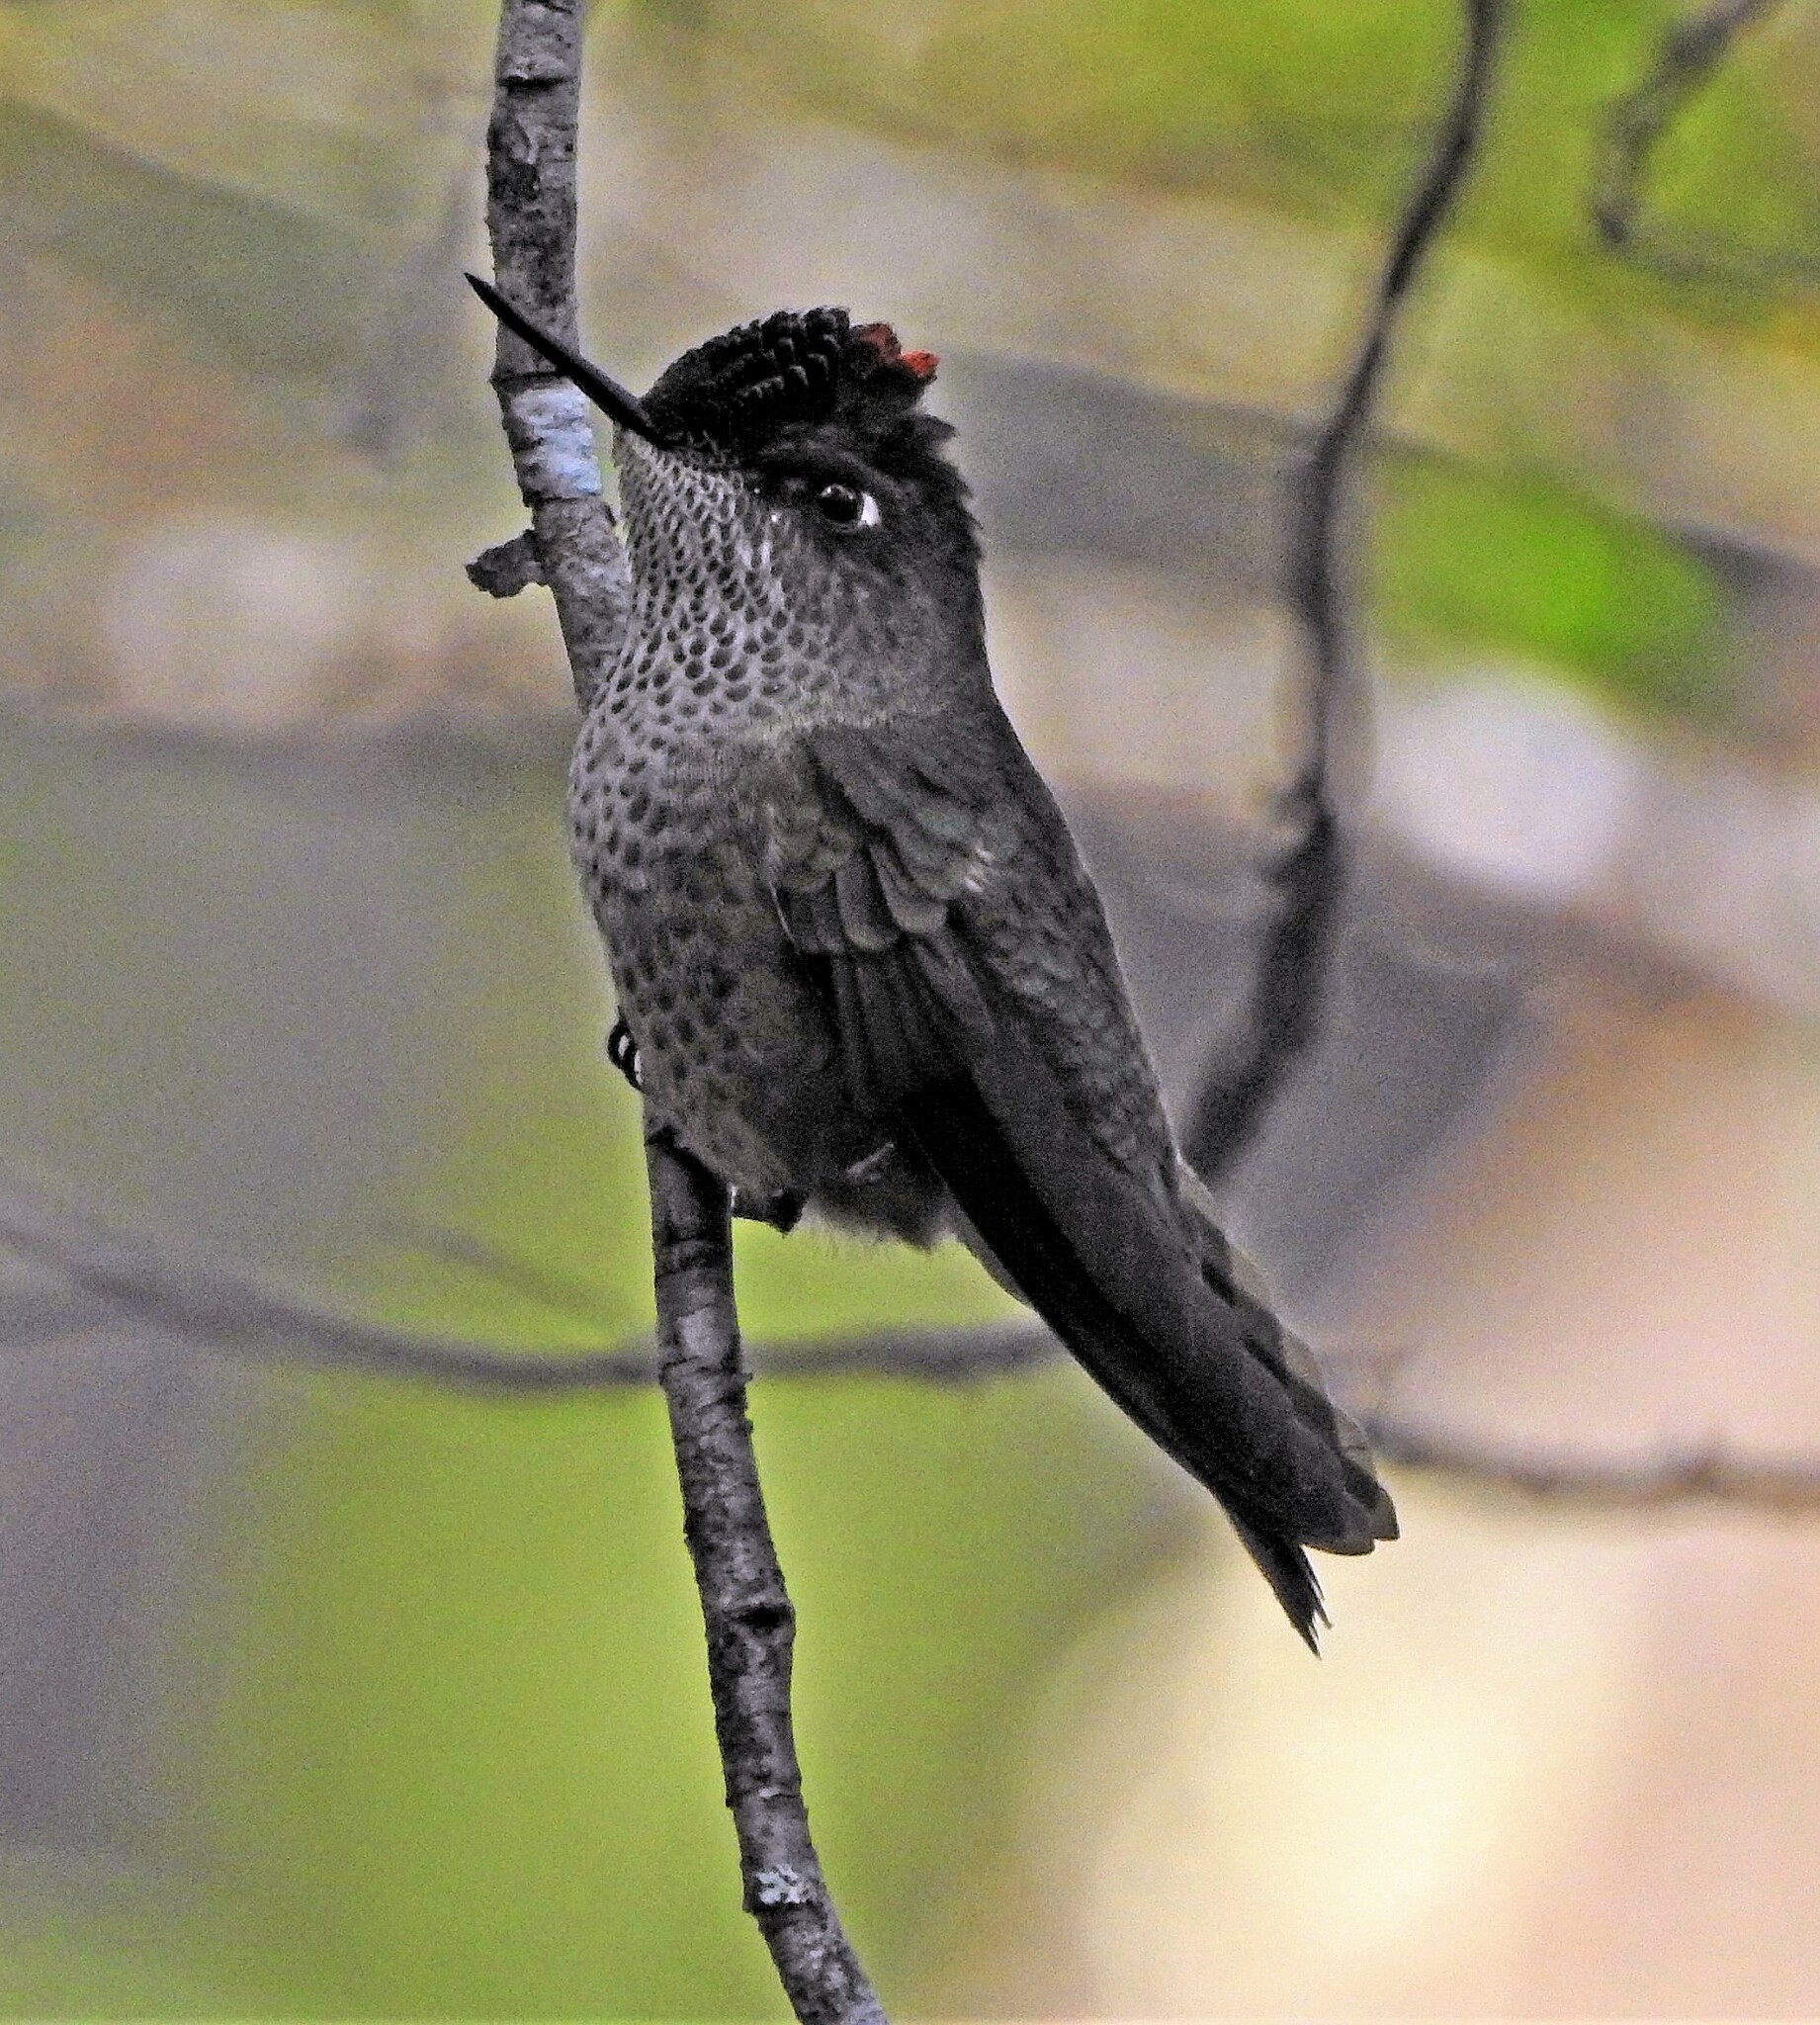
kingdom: Animalia
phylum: Chordata
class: Aves
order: Apodiformes
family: Trochilidae
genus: Sephanoides
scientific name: Sephanoides sephaniodes
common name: Green-backed firecrown
